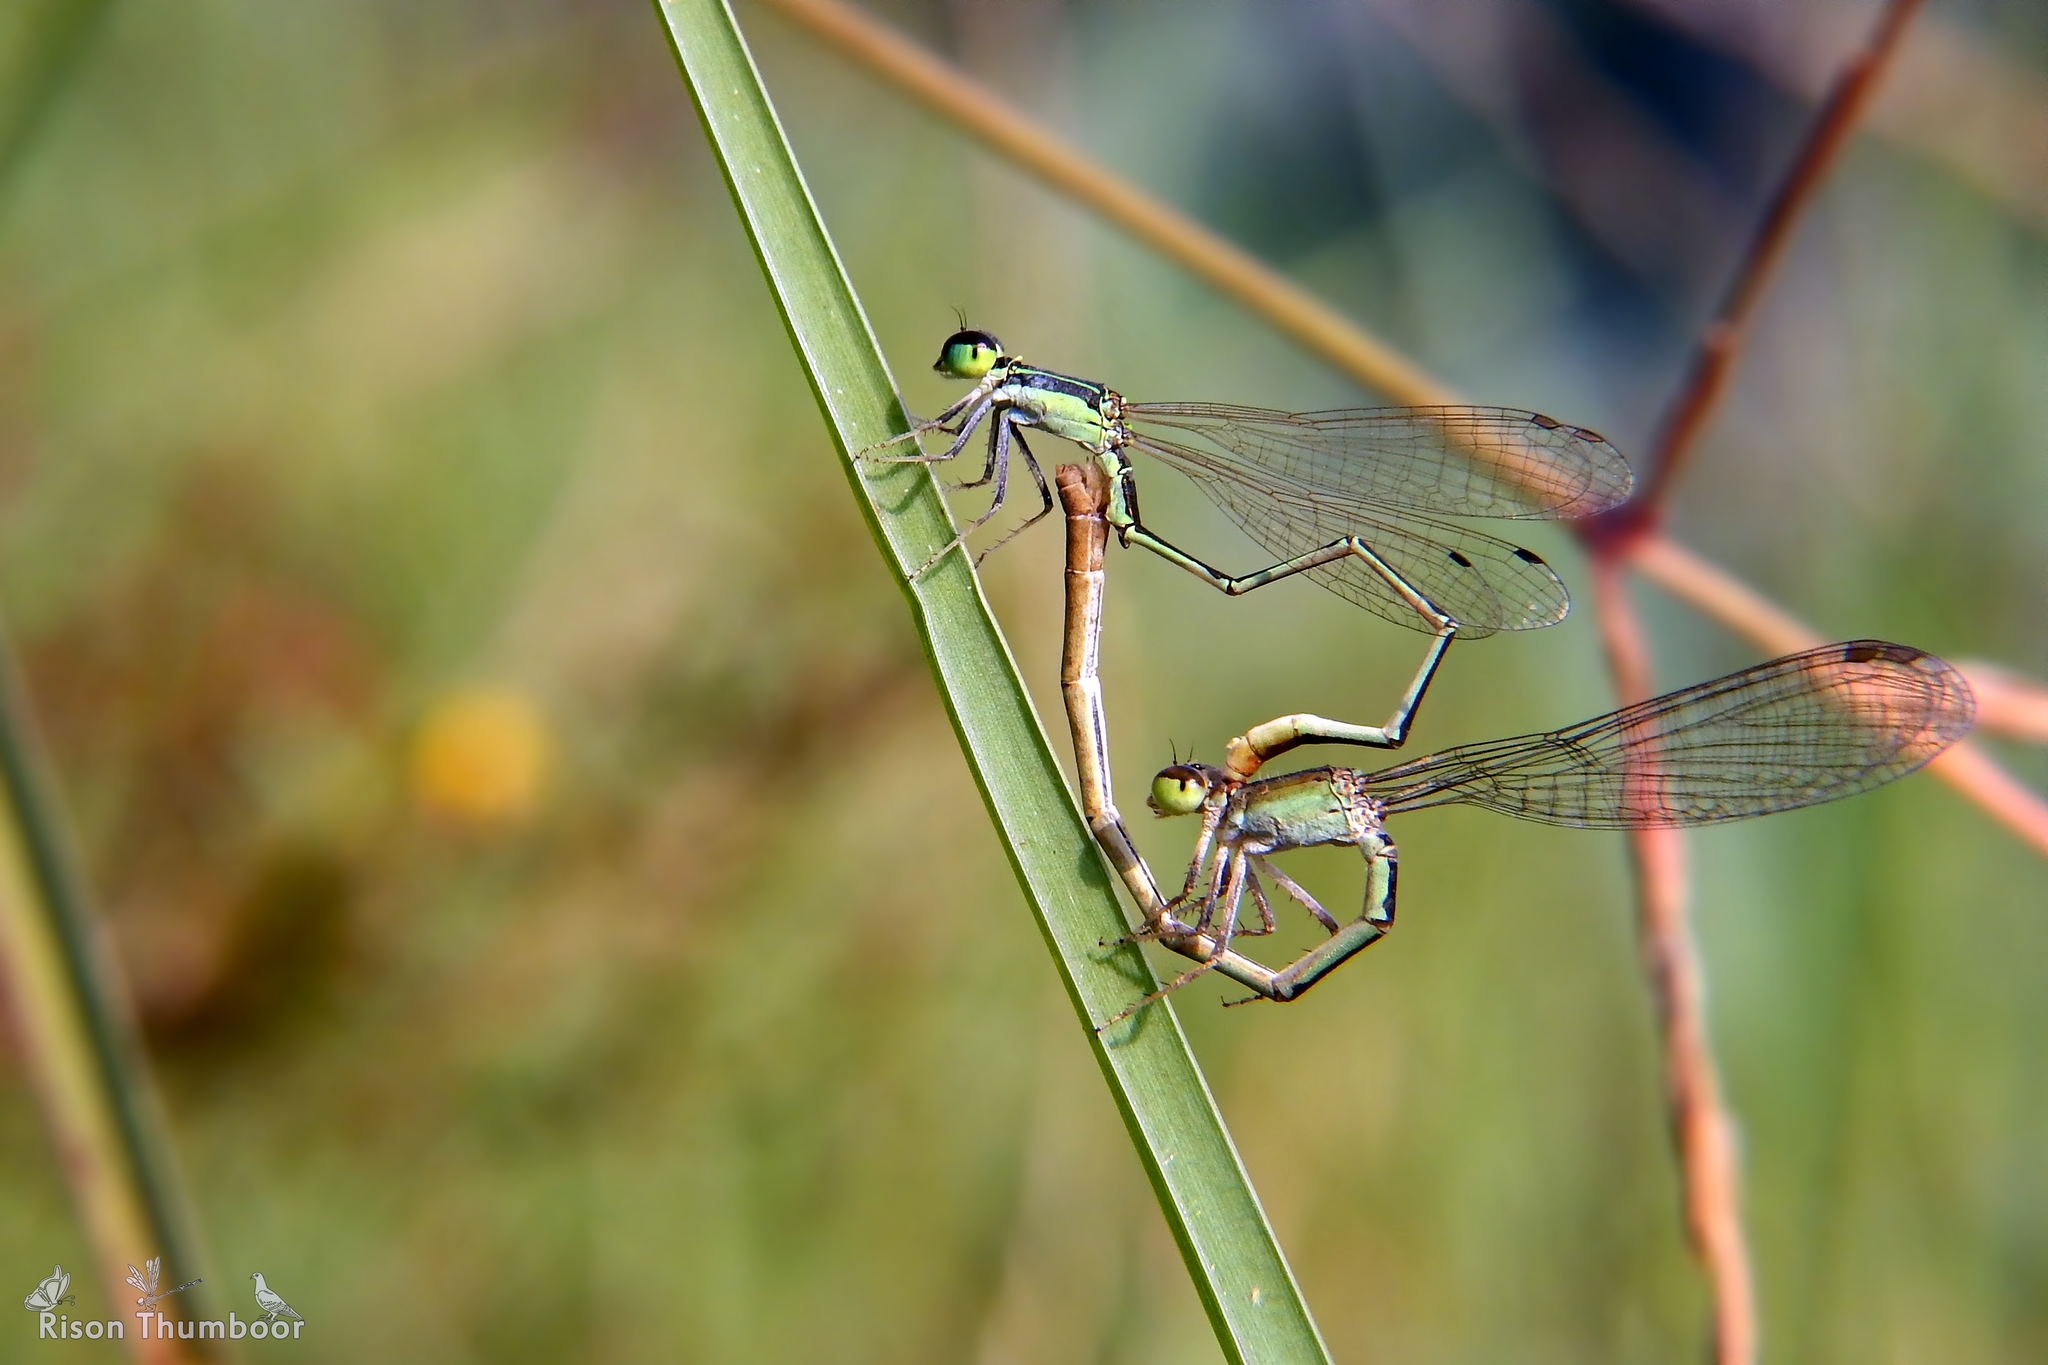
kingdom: Animalia
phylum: Arthropoda
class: Insecta
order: Odonata
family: Coenagrionidae
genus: Agriocnemis
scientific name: Agriocnemis pygmaea
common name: Pygmy wisp
